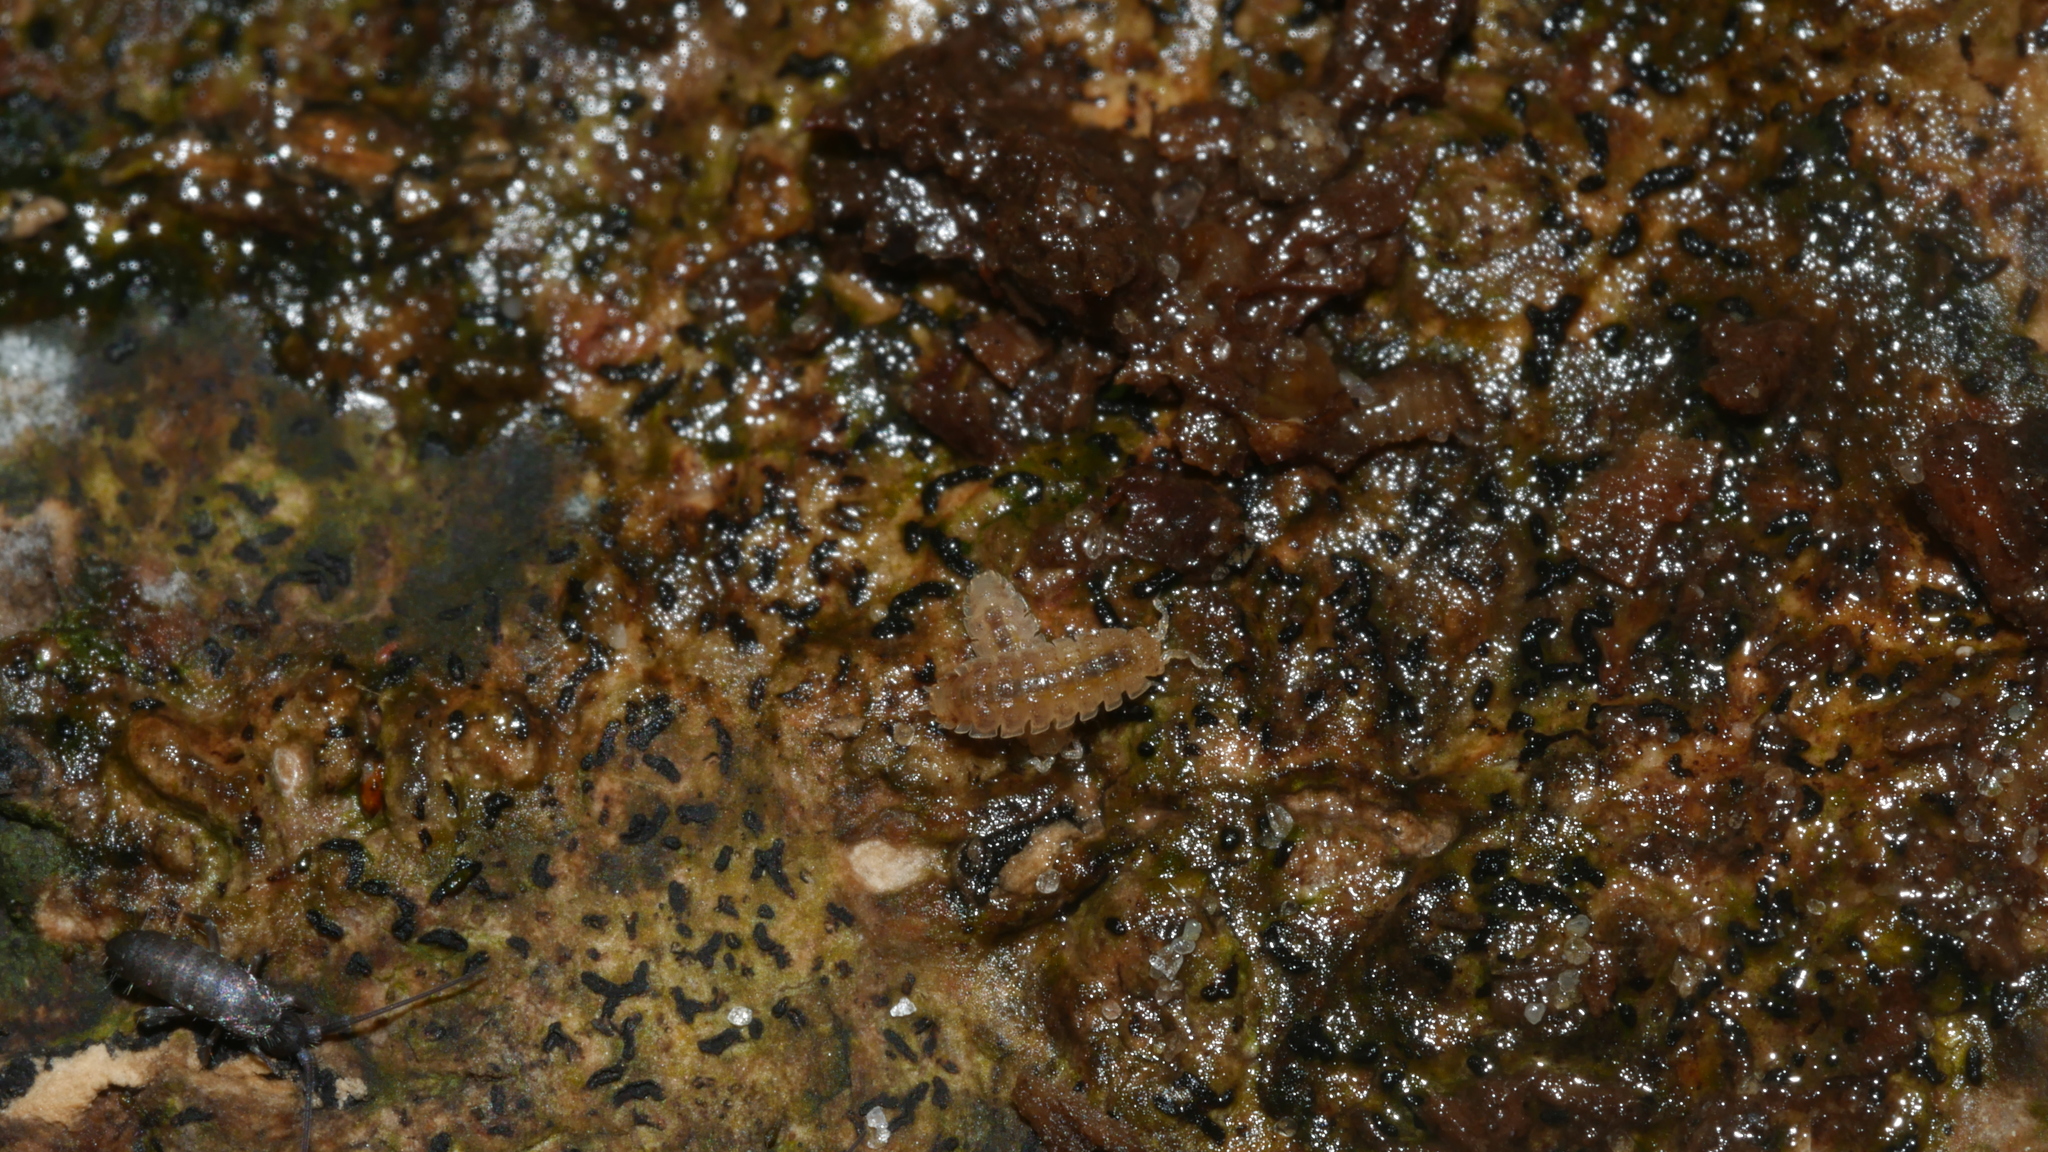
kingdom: Animalia
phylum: Arthropoda
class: Malacostraca
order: Isopoda
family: Trichoniscidae
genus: Haplophthalmus
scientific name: Haplophthalmus danicus
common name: Pillbug
